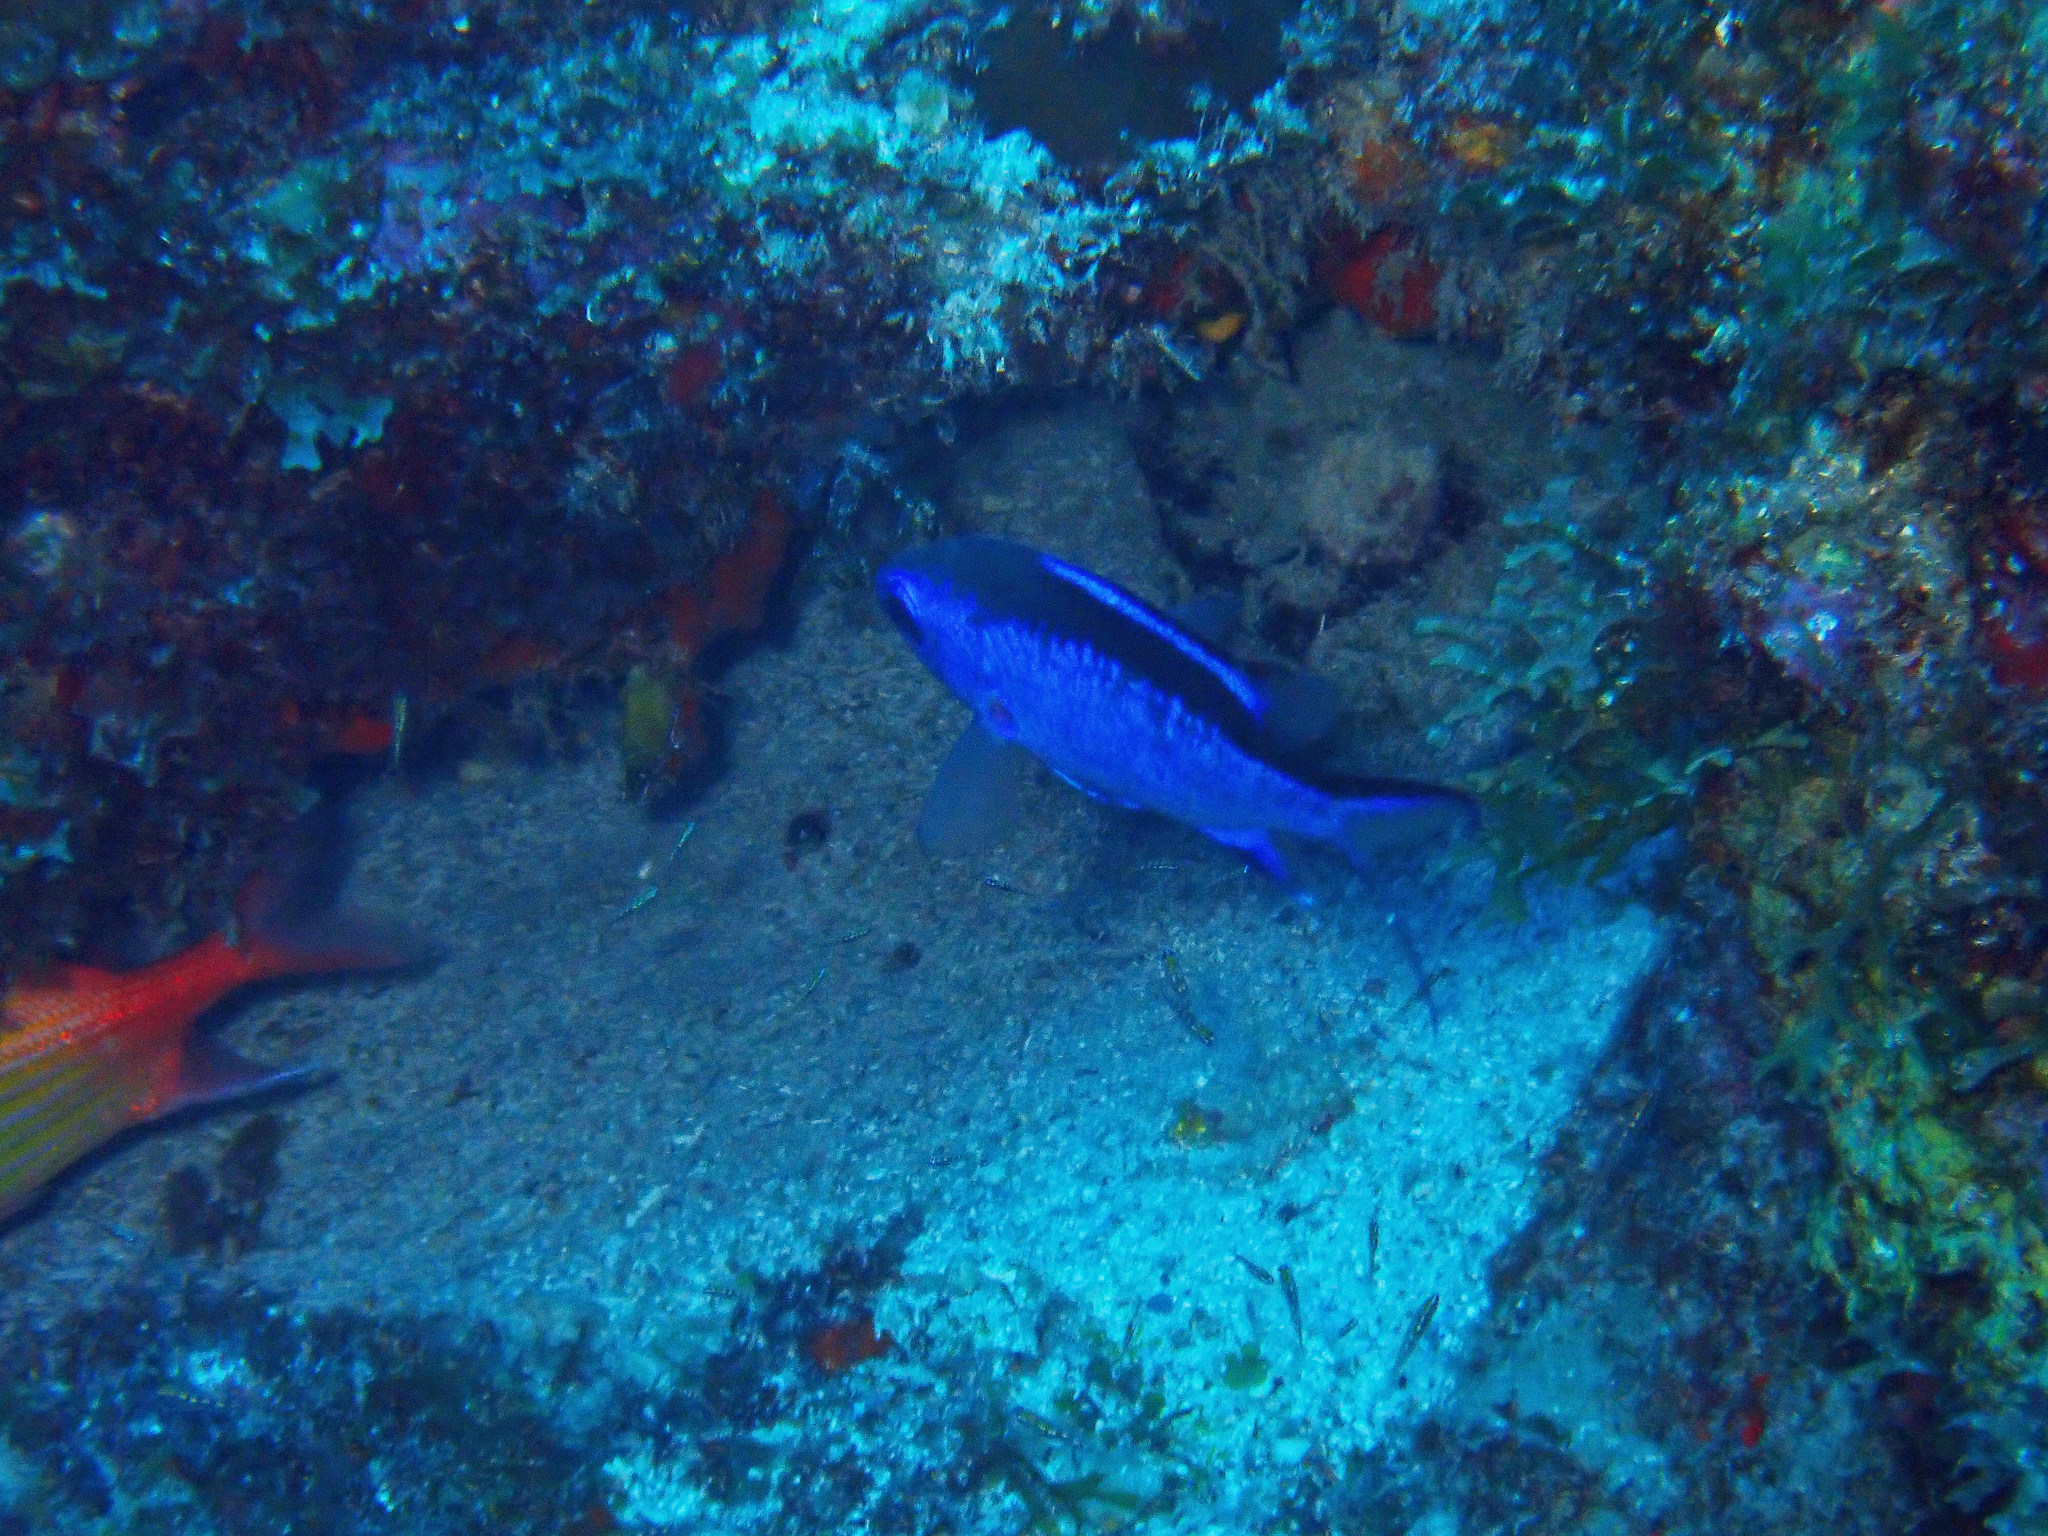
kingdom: Animalia
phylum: Chordata
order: Perciformes
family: Pomacentridae
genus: Chromis
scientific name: Chromis cyanea
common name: Blue chromis
